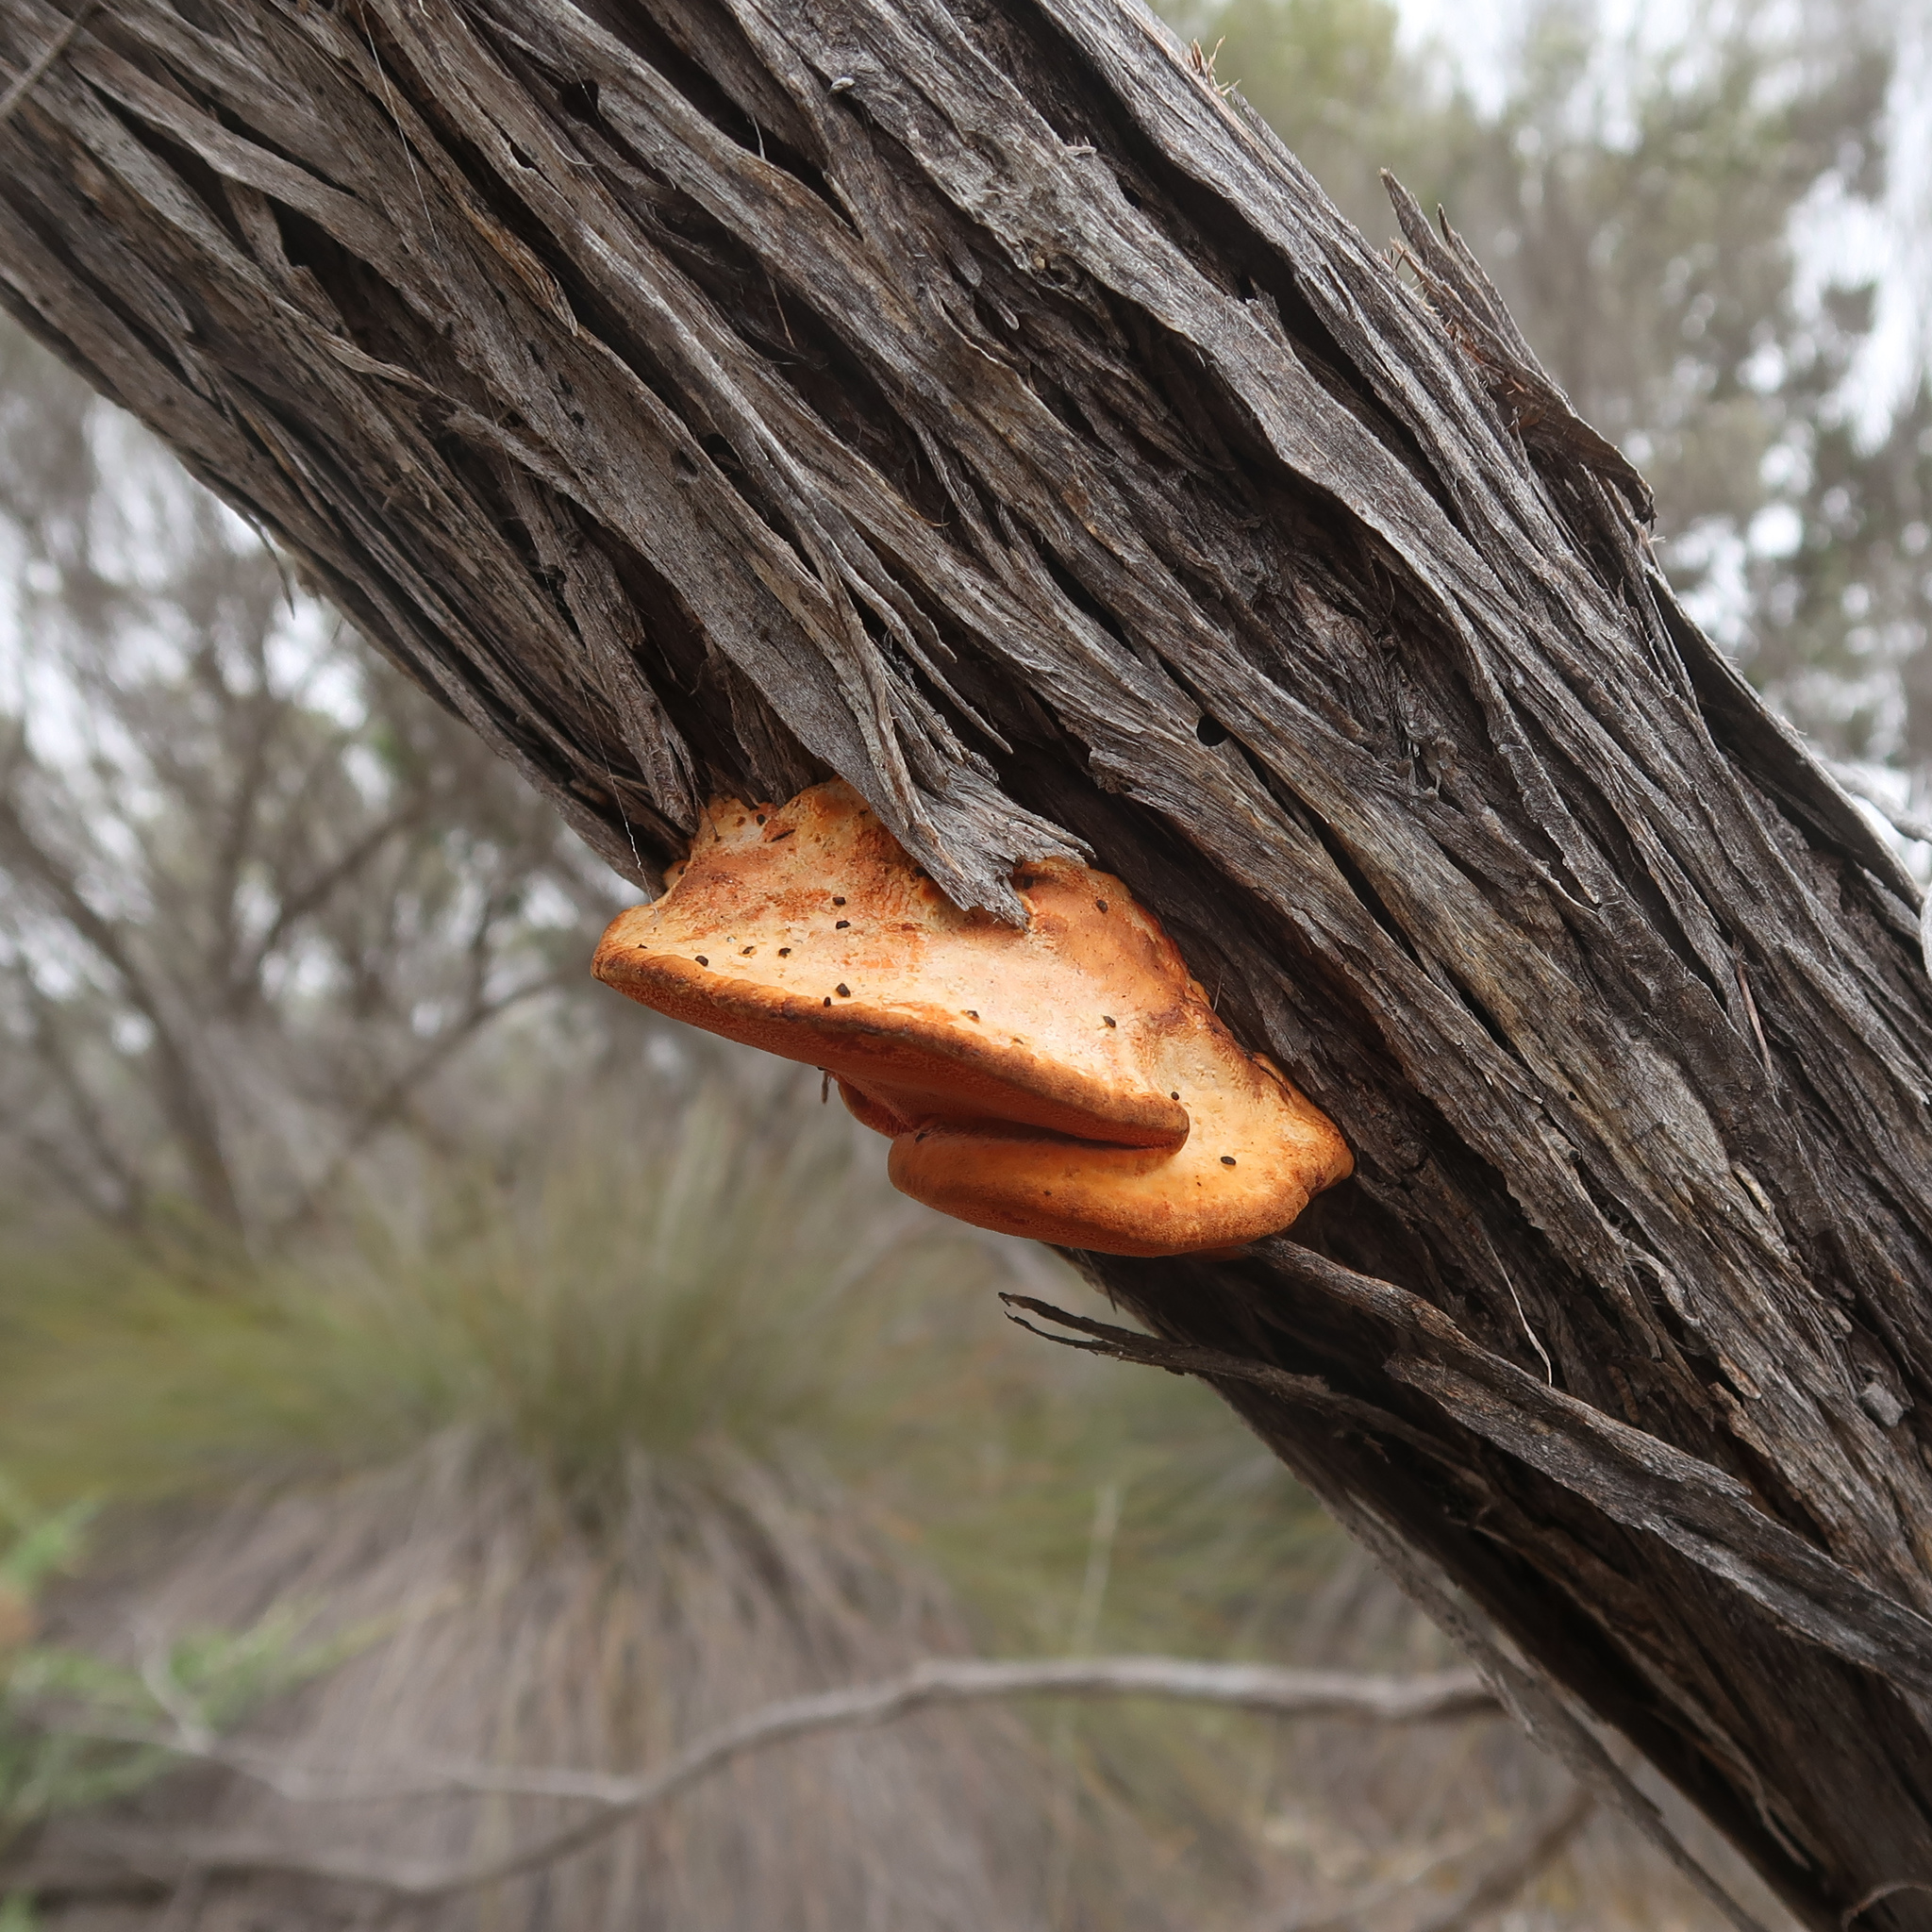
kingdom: Fungi
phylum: Basidiomycota
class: Agaricomycetes
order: Polyporales
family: Polyporaceae
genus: Trametes
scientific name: Trametes coccinea
